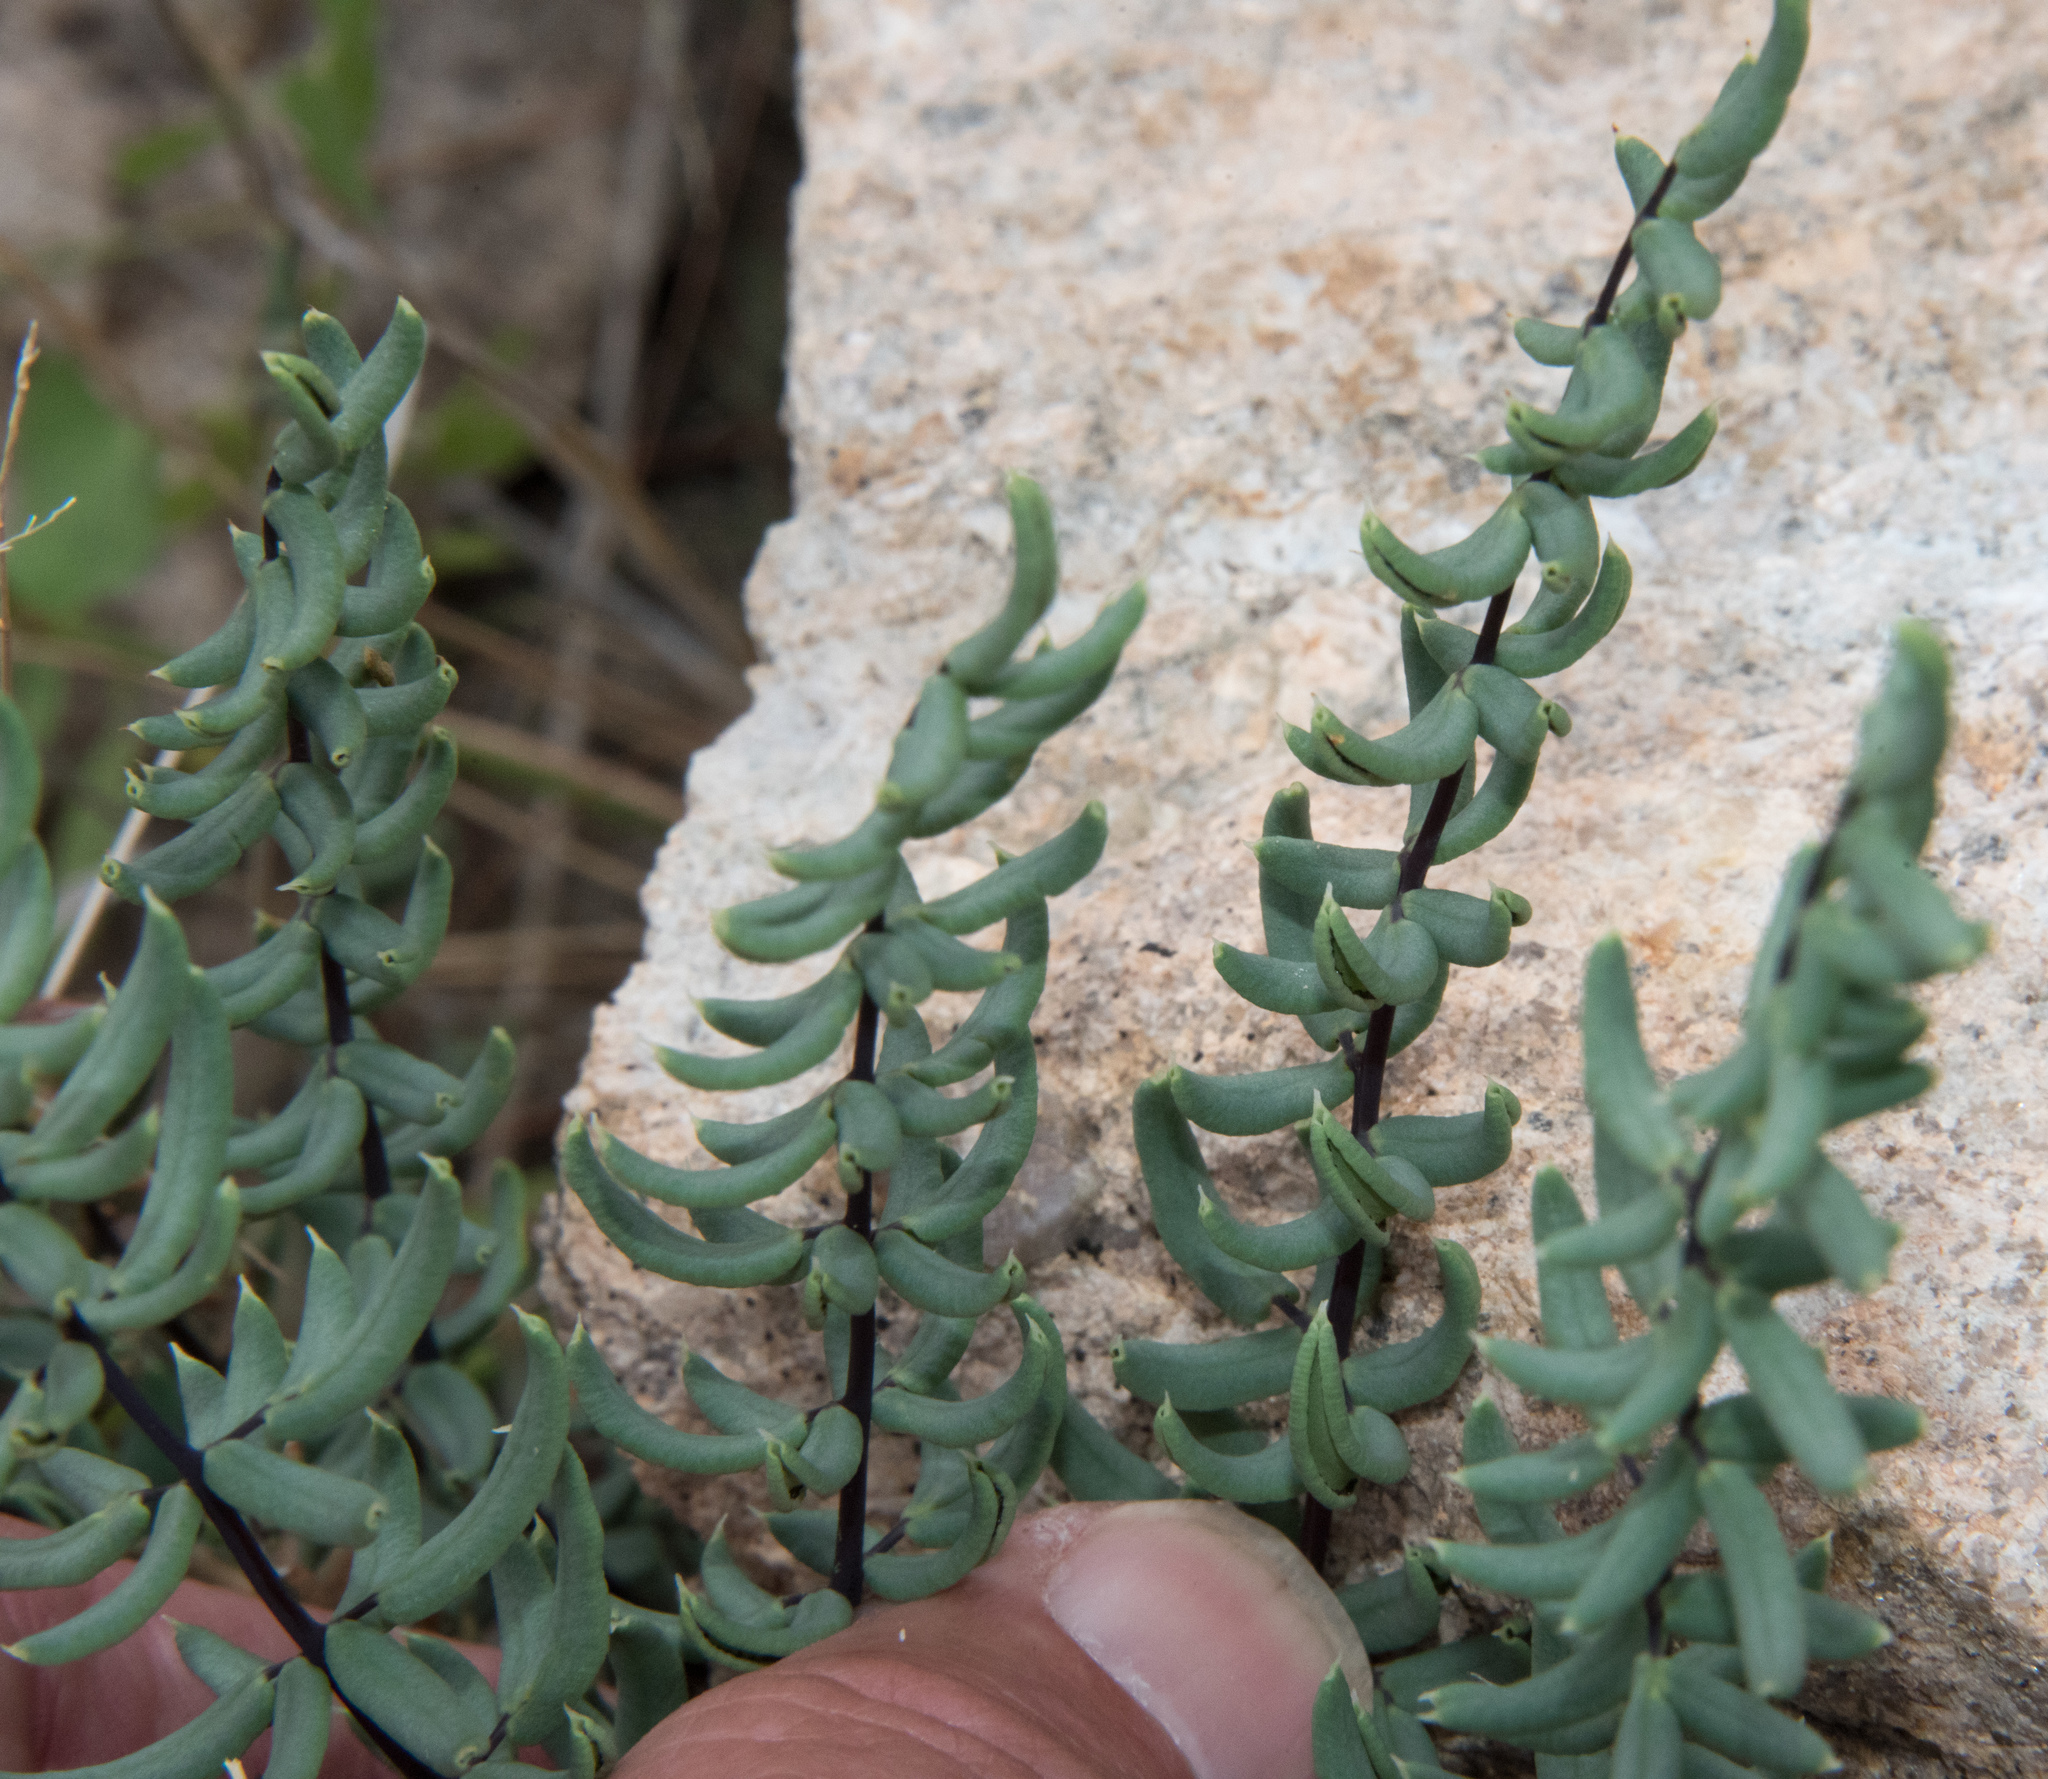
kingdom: Plantae
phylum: Tracheophyta
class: Polypodiopsida
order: Polypodiales
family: Pteridaceae
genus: Pellaea
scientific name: Pellaea wrightiana
